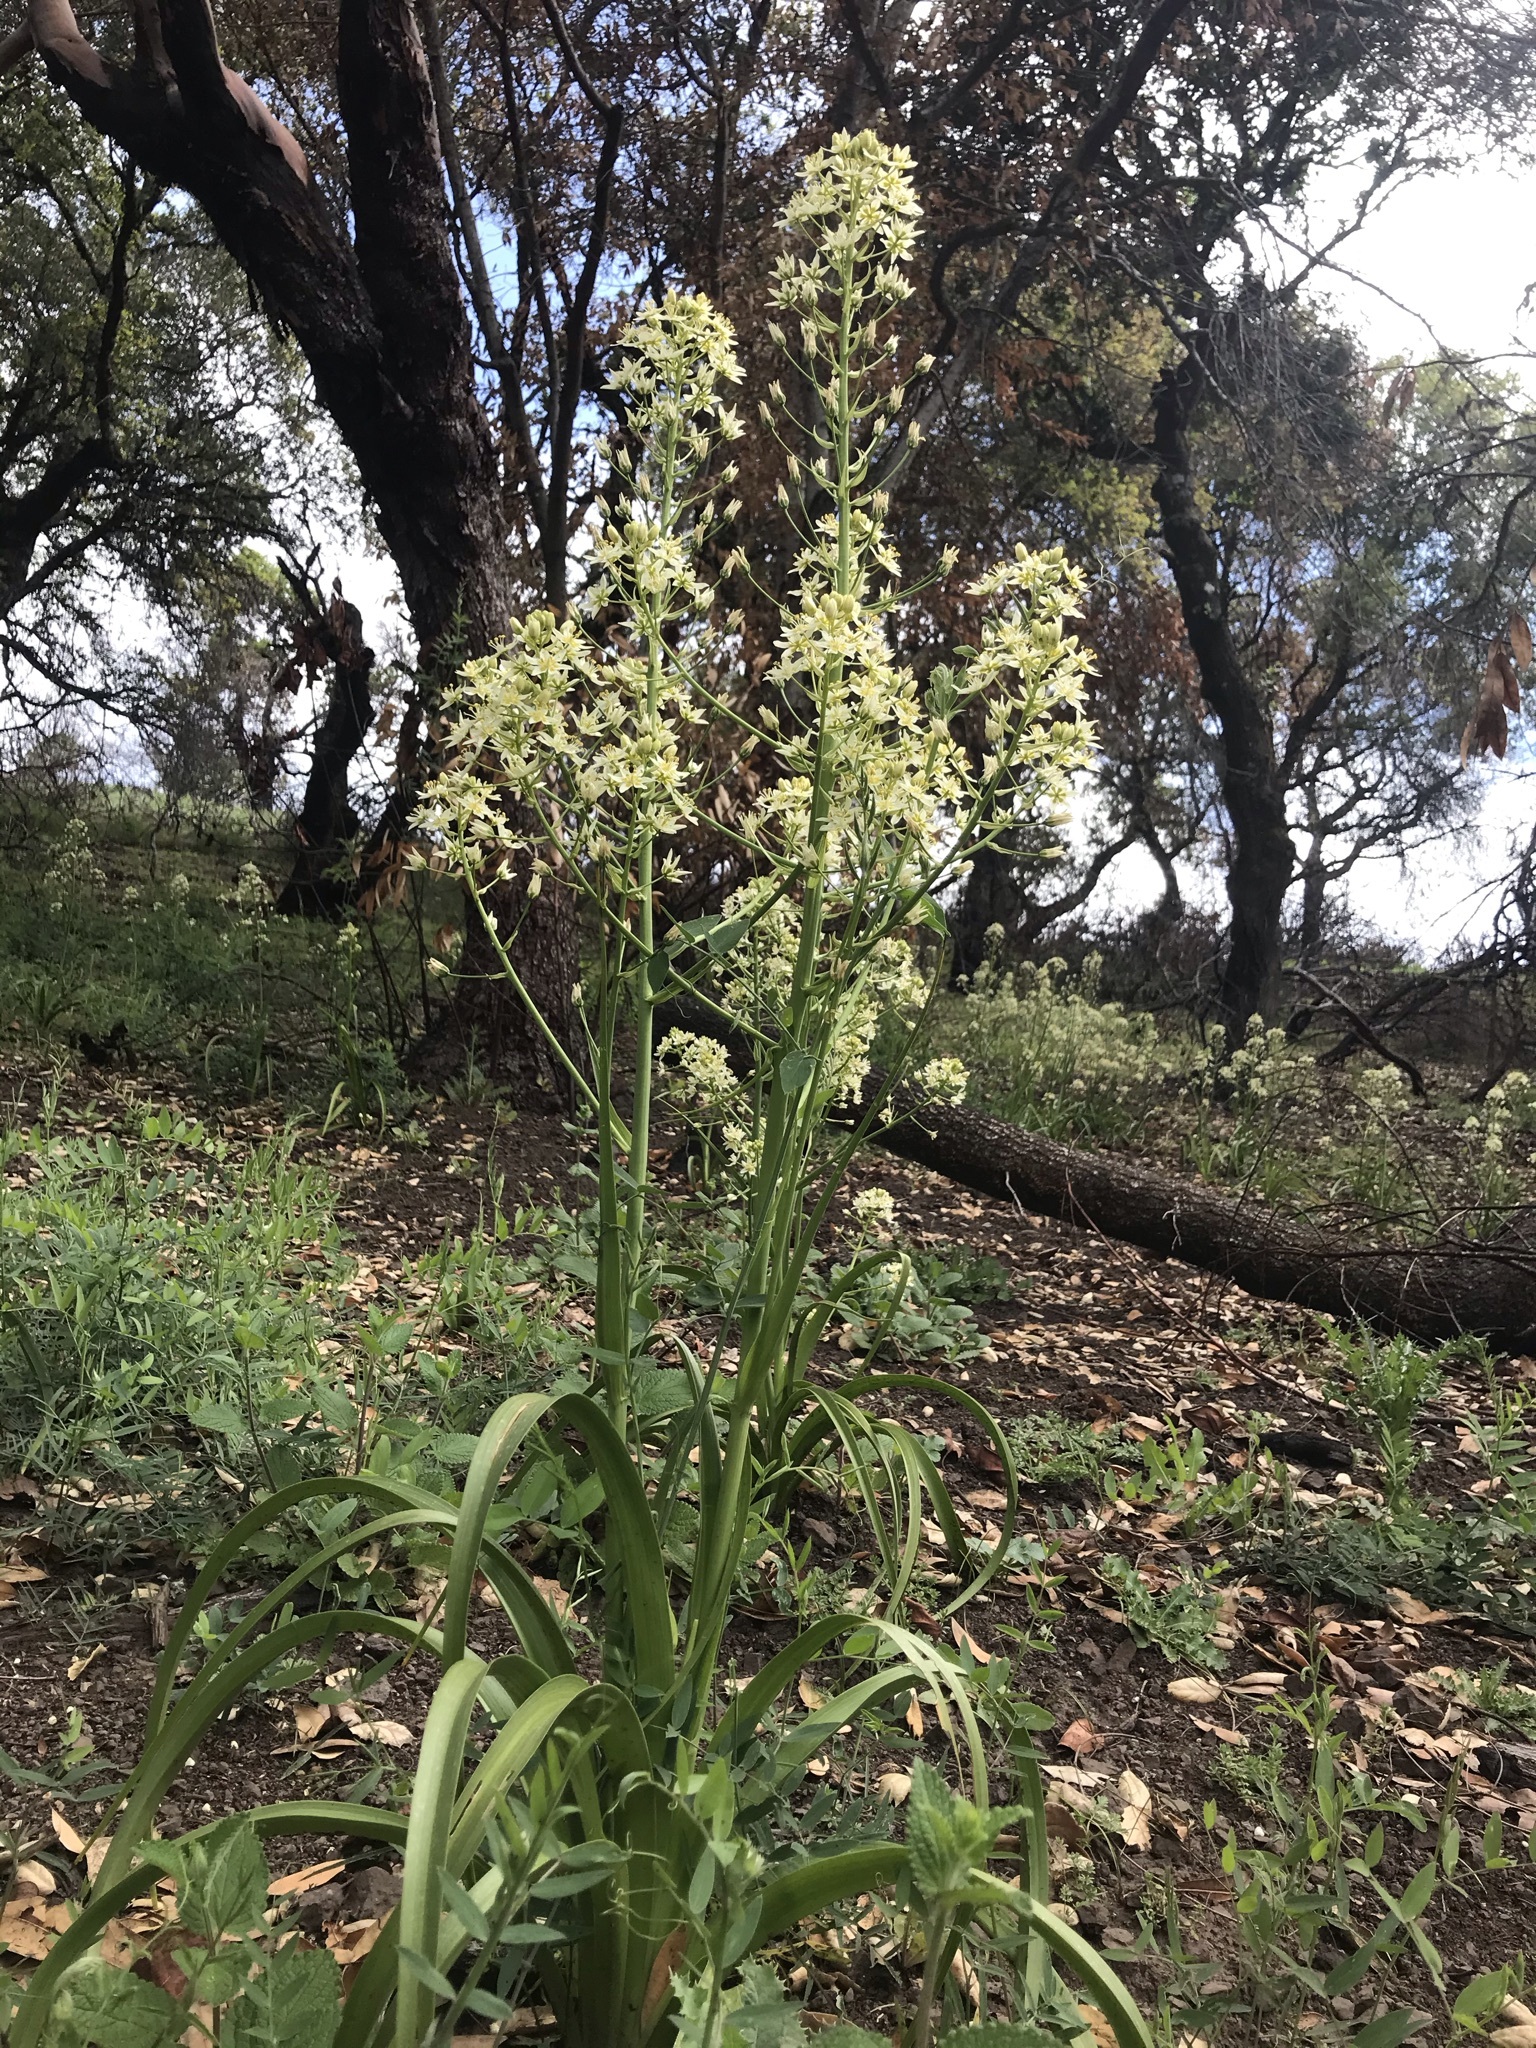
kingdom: Plantae
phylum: Tracheophyta
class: Liliopsida
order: Liliales
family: Melanthiaceae
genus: Toxicoscordion
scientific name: Toxicoscordion fremontii
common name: Fremont's death camas
